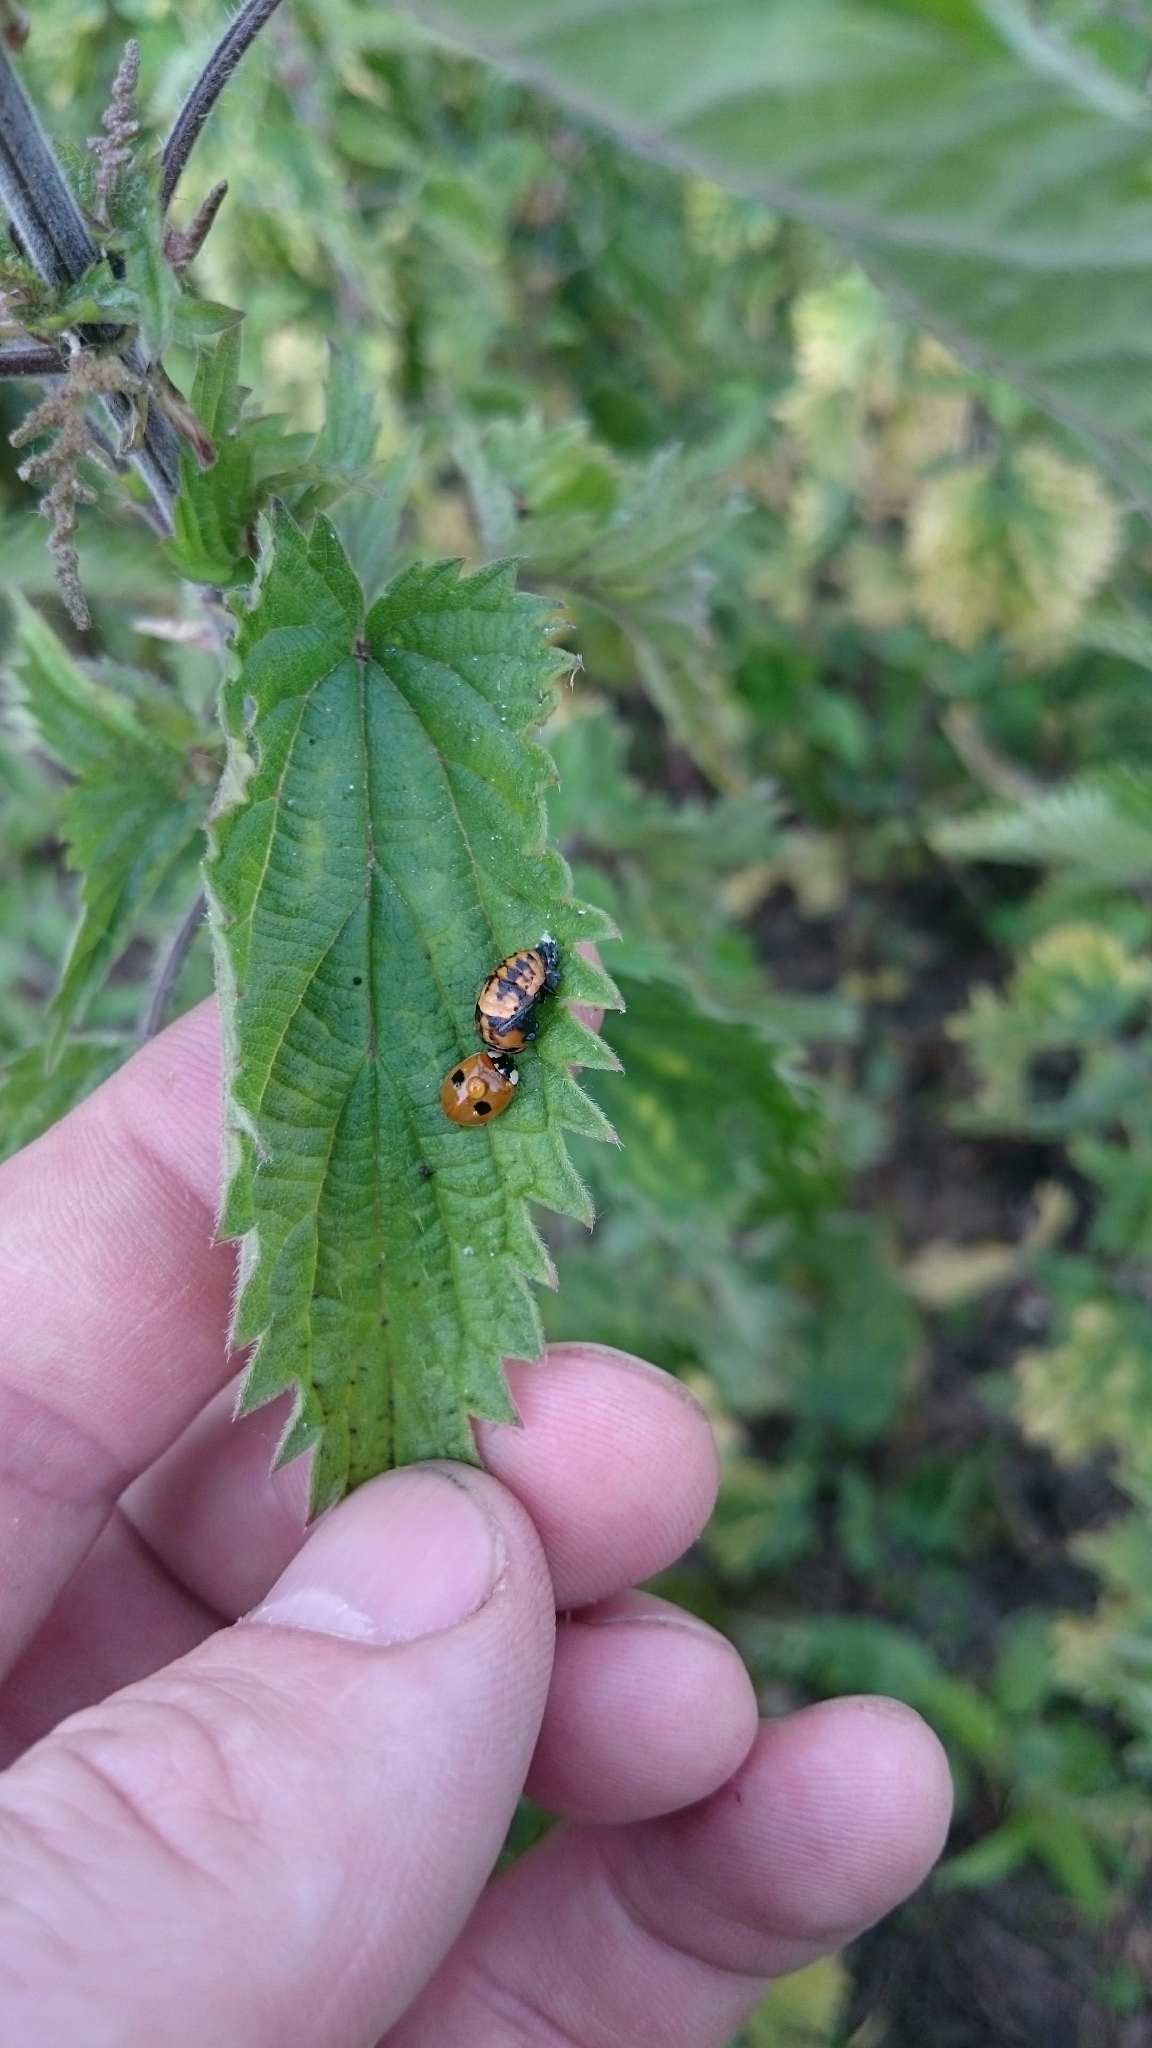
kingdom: Animalia
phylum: Arthropoda
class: Insecta
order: Coleoptera
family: Coccinellidae
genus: Adalia
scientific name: Adalia bipunctata
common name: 2-spot ladybird
